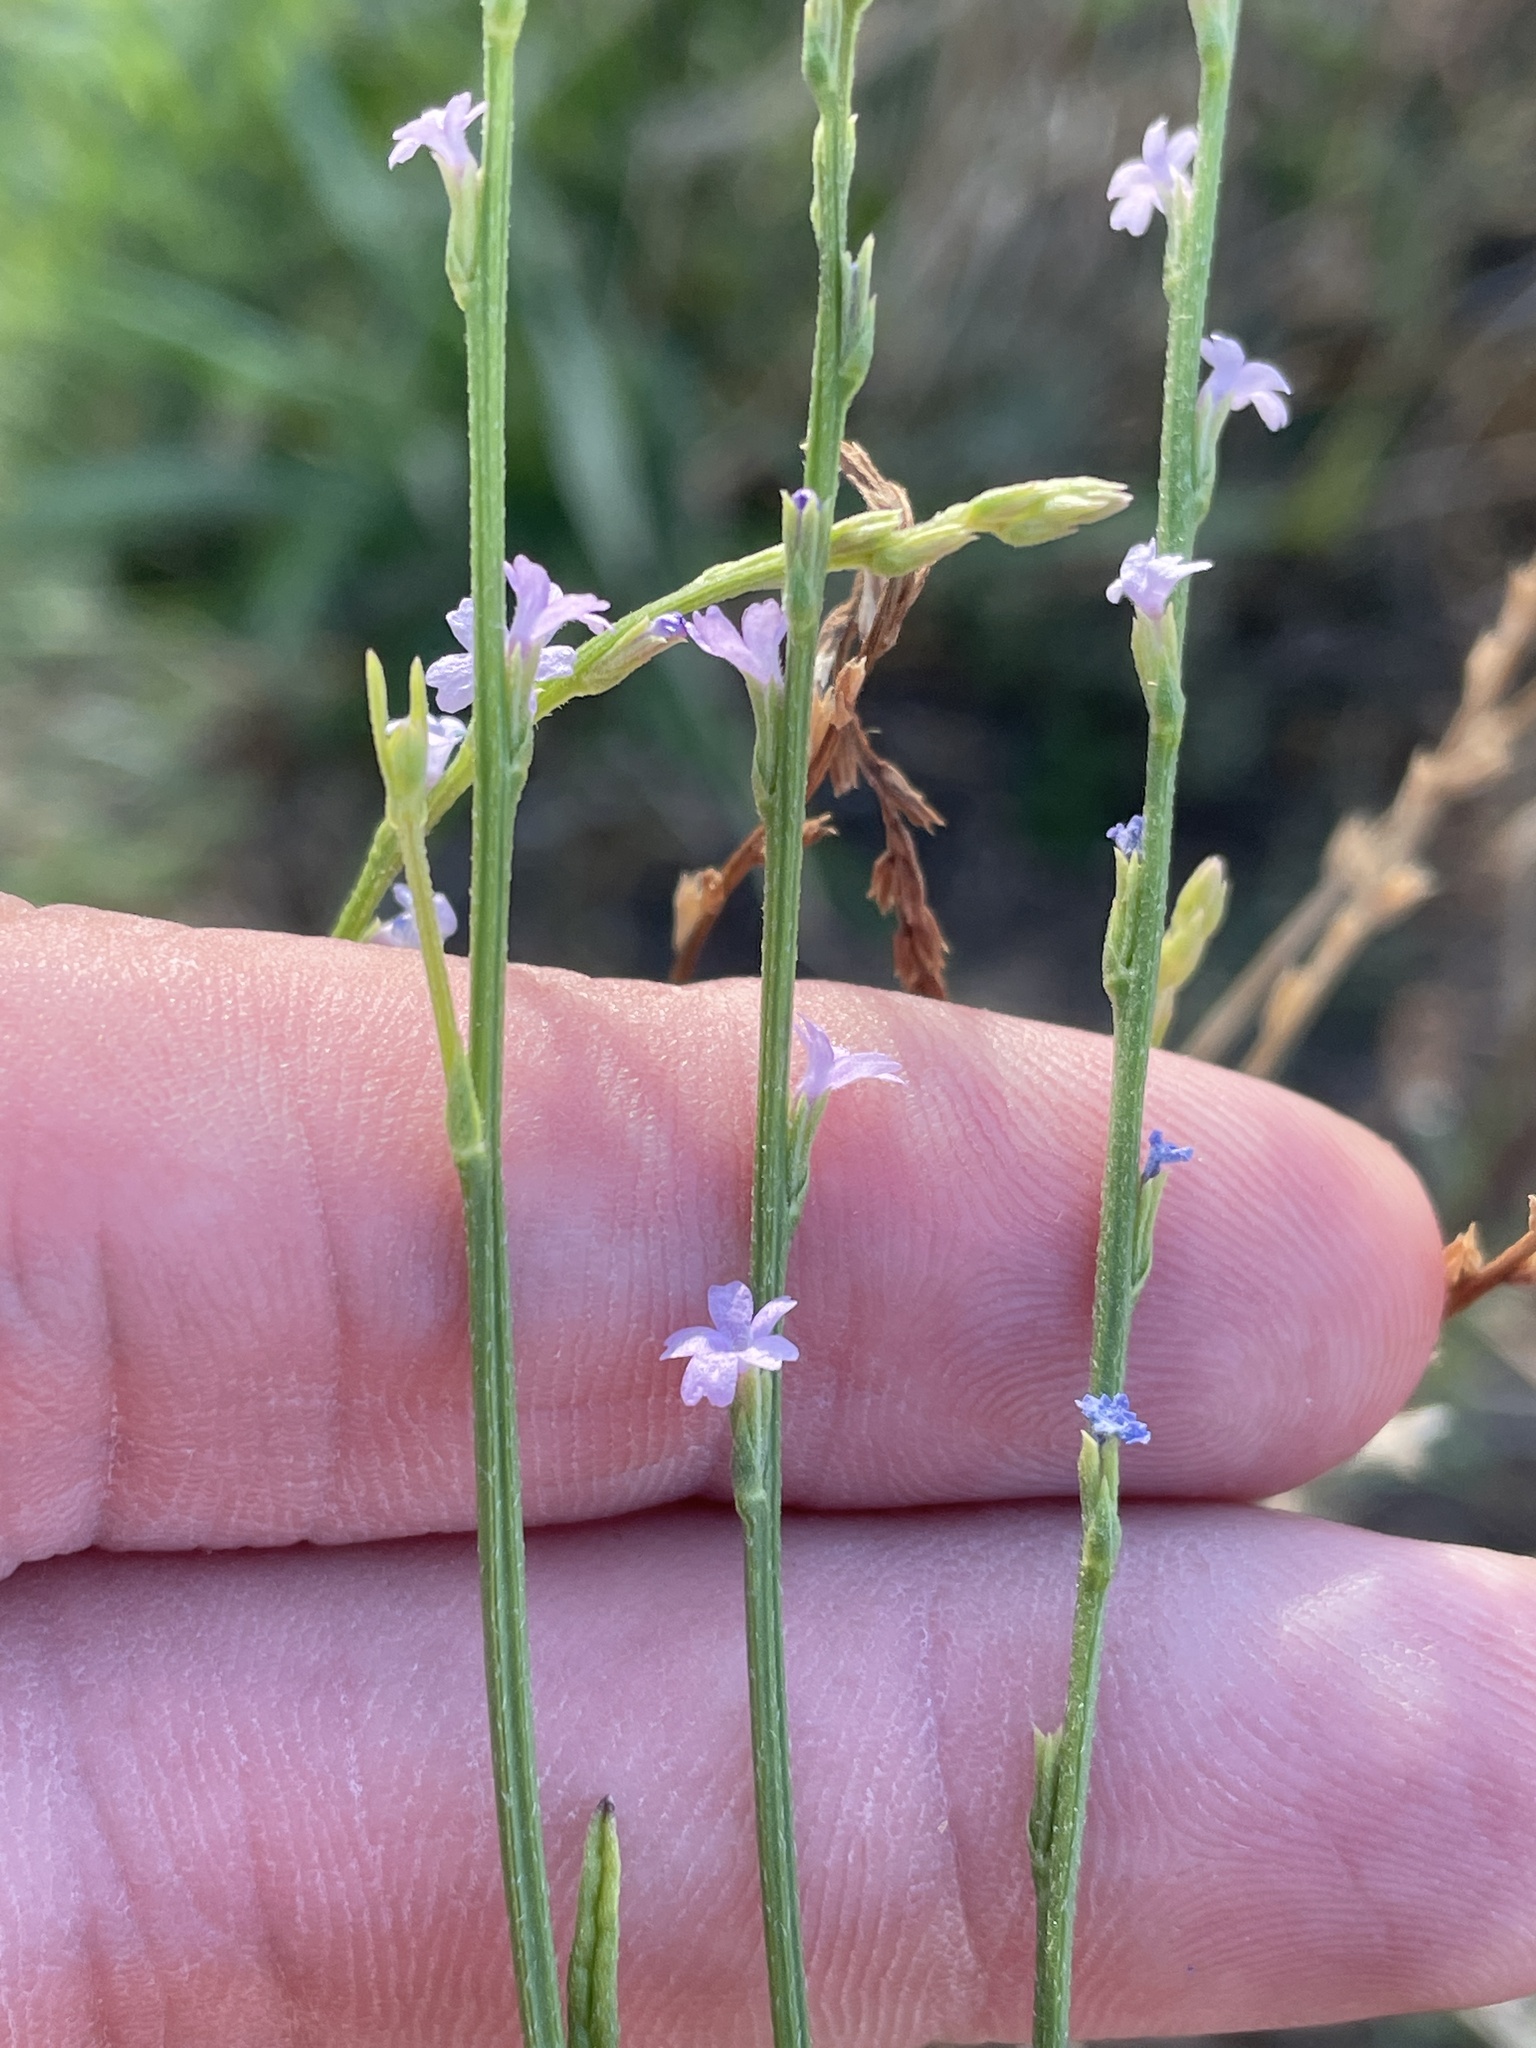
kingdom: Plantae
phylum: Tracheophyta
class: Magnoliopsida
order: Lamiales
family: Verbenaceae
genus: Verbena
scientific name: Verbena halei
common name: Texas vervain
